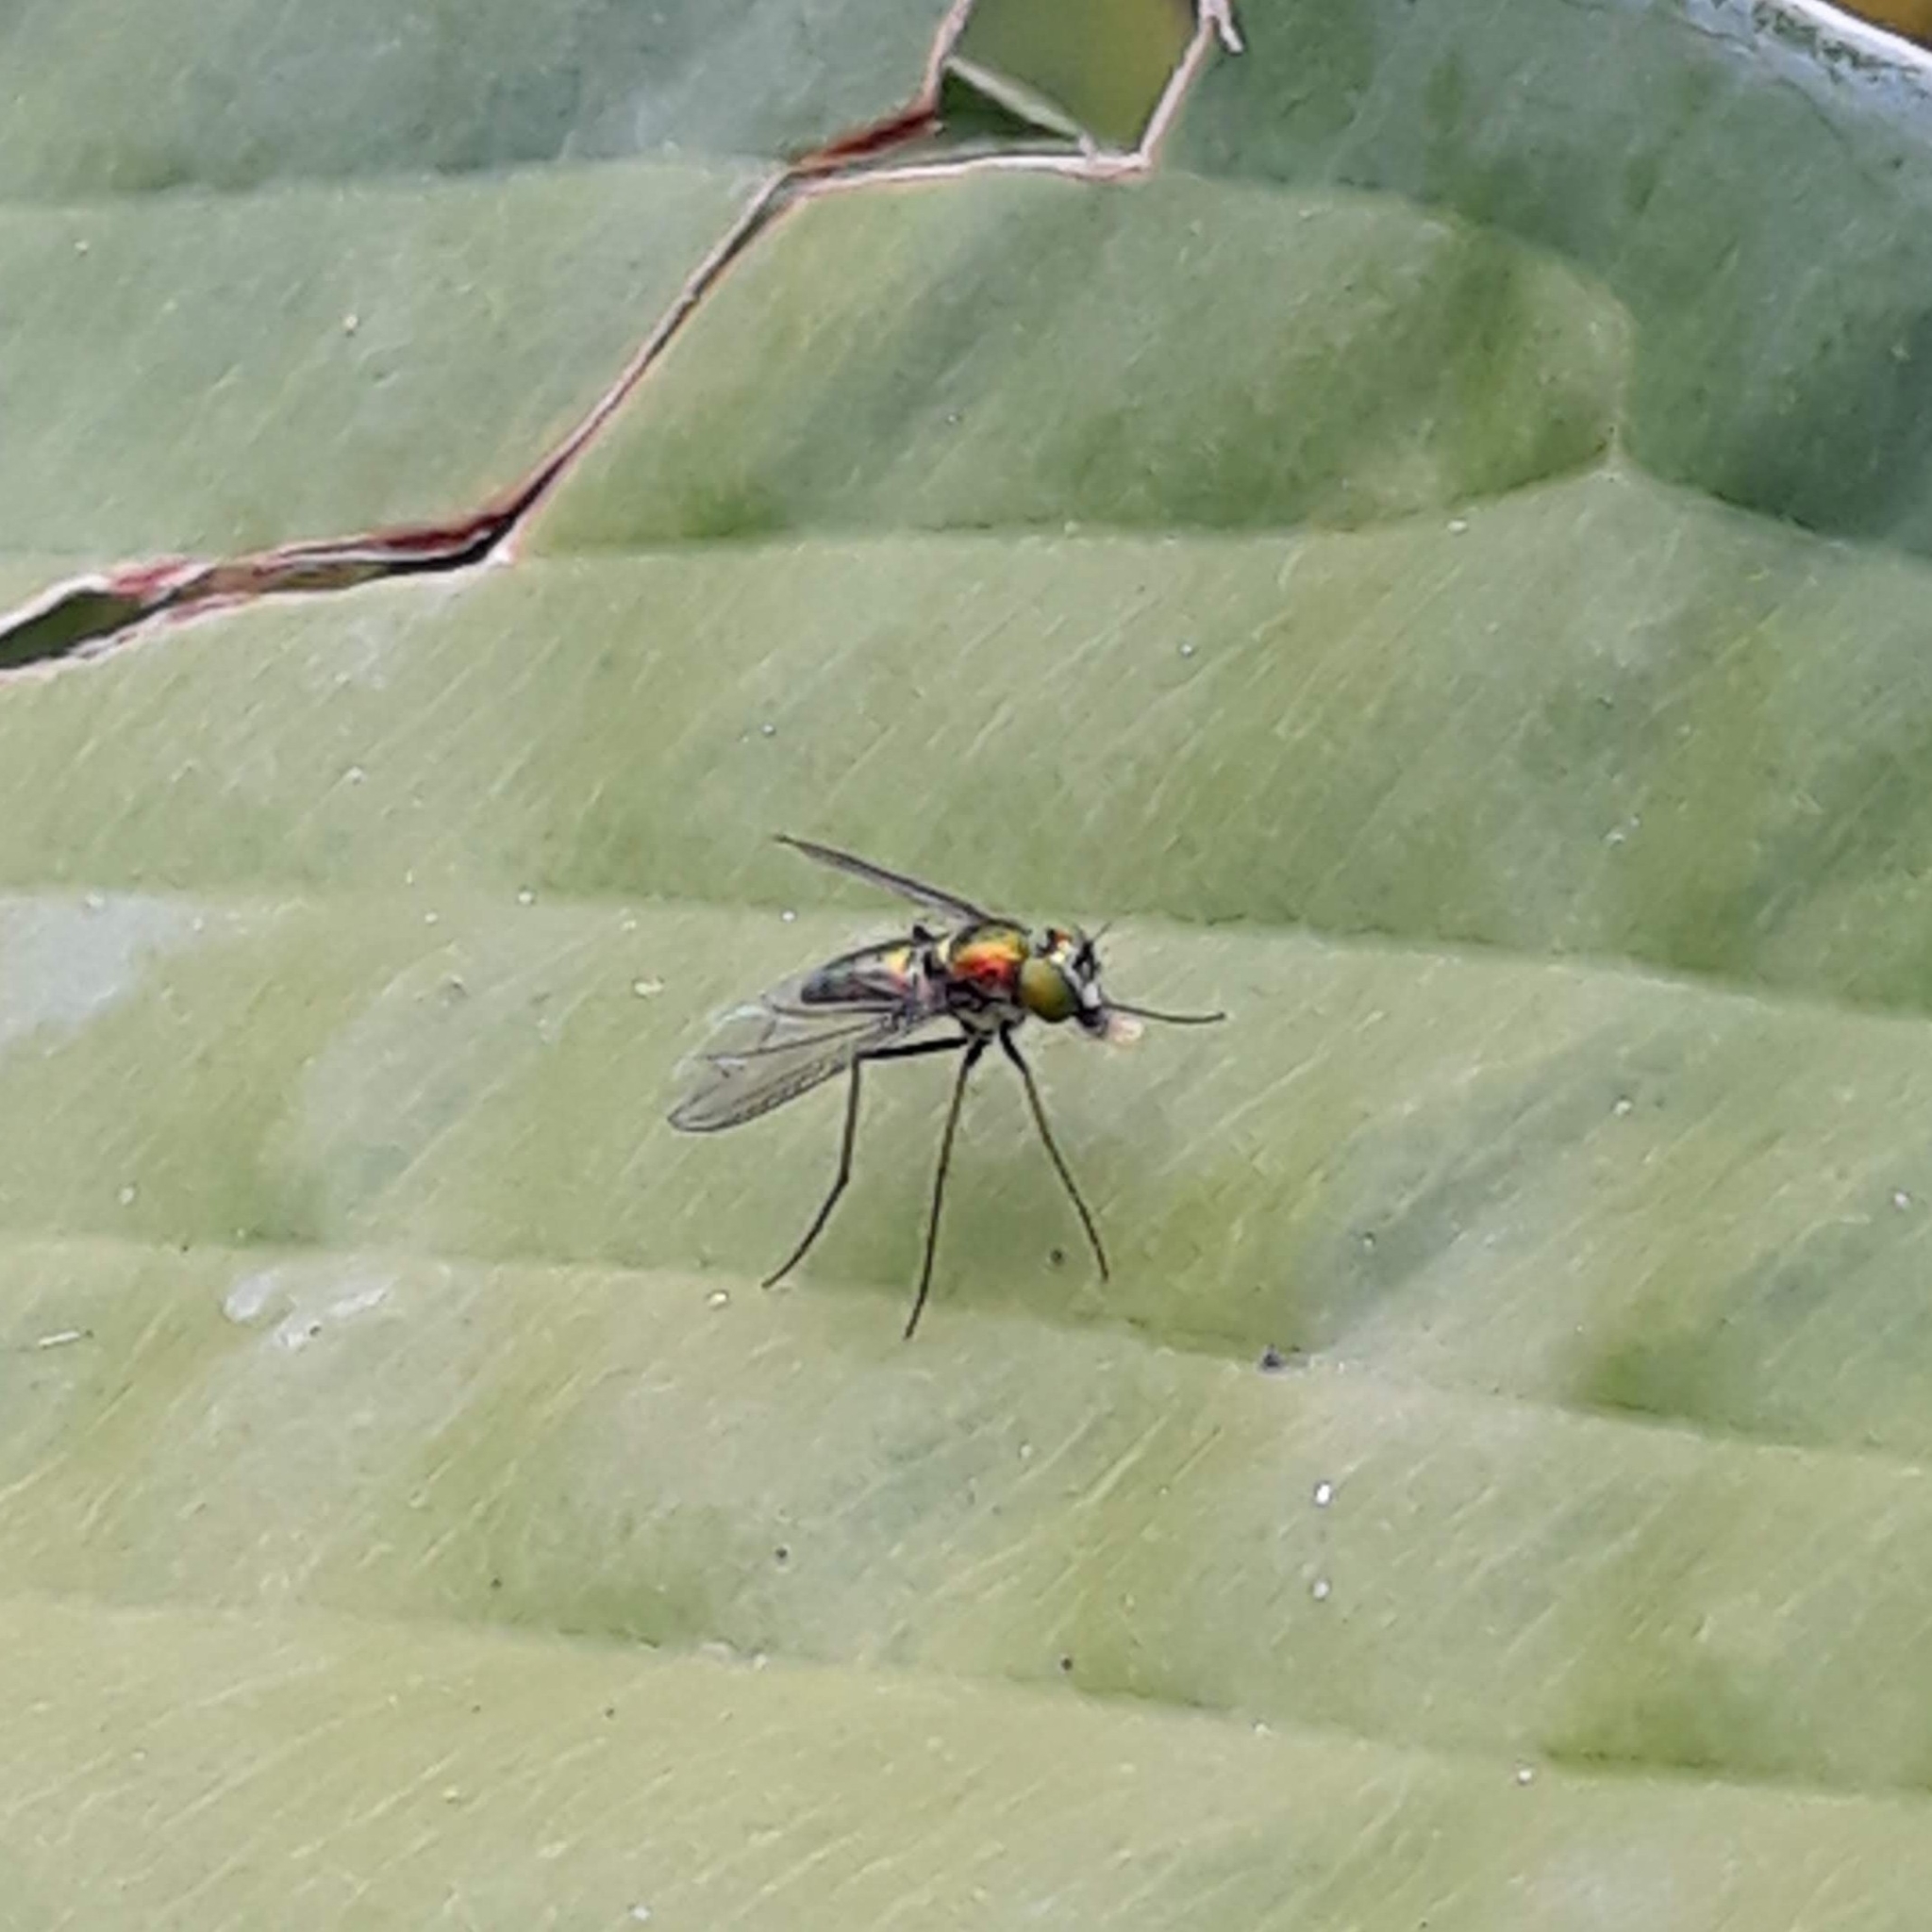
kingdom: Animalia
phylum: Arthropoda
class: Insecta
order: Diptera
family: Dolichopodidae
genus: Condylostylus
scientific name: Condylostylus
